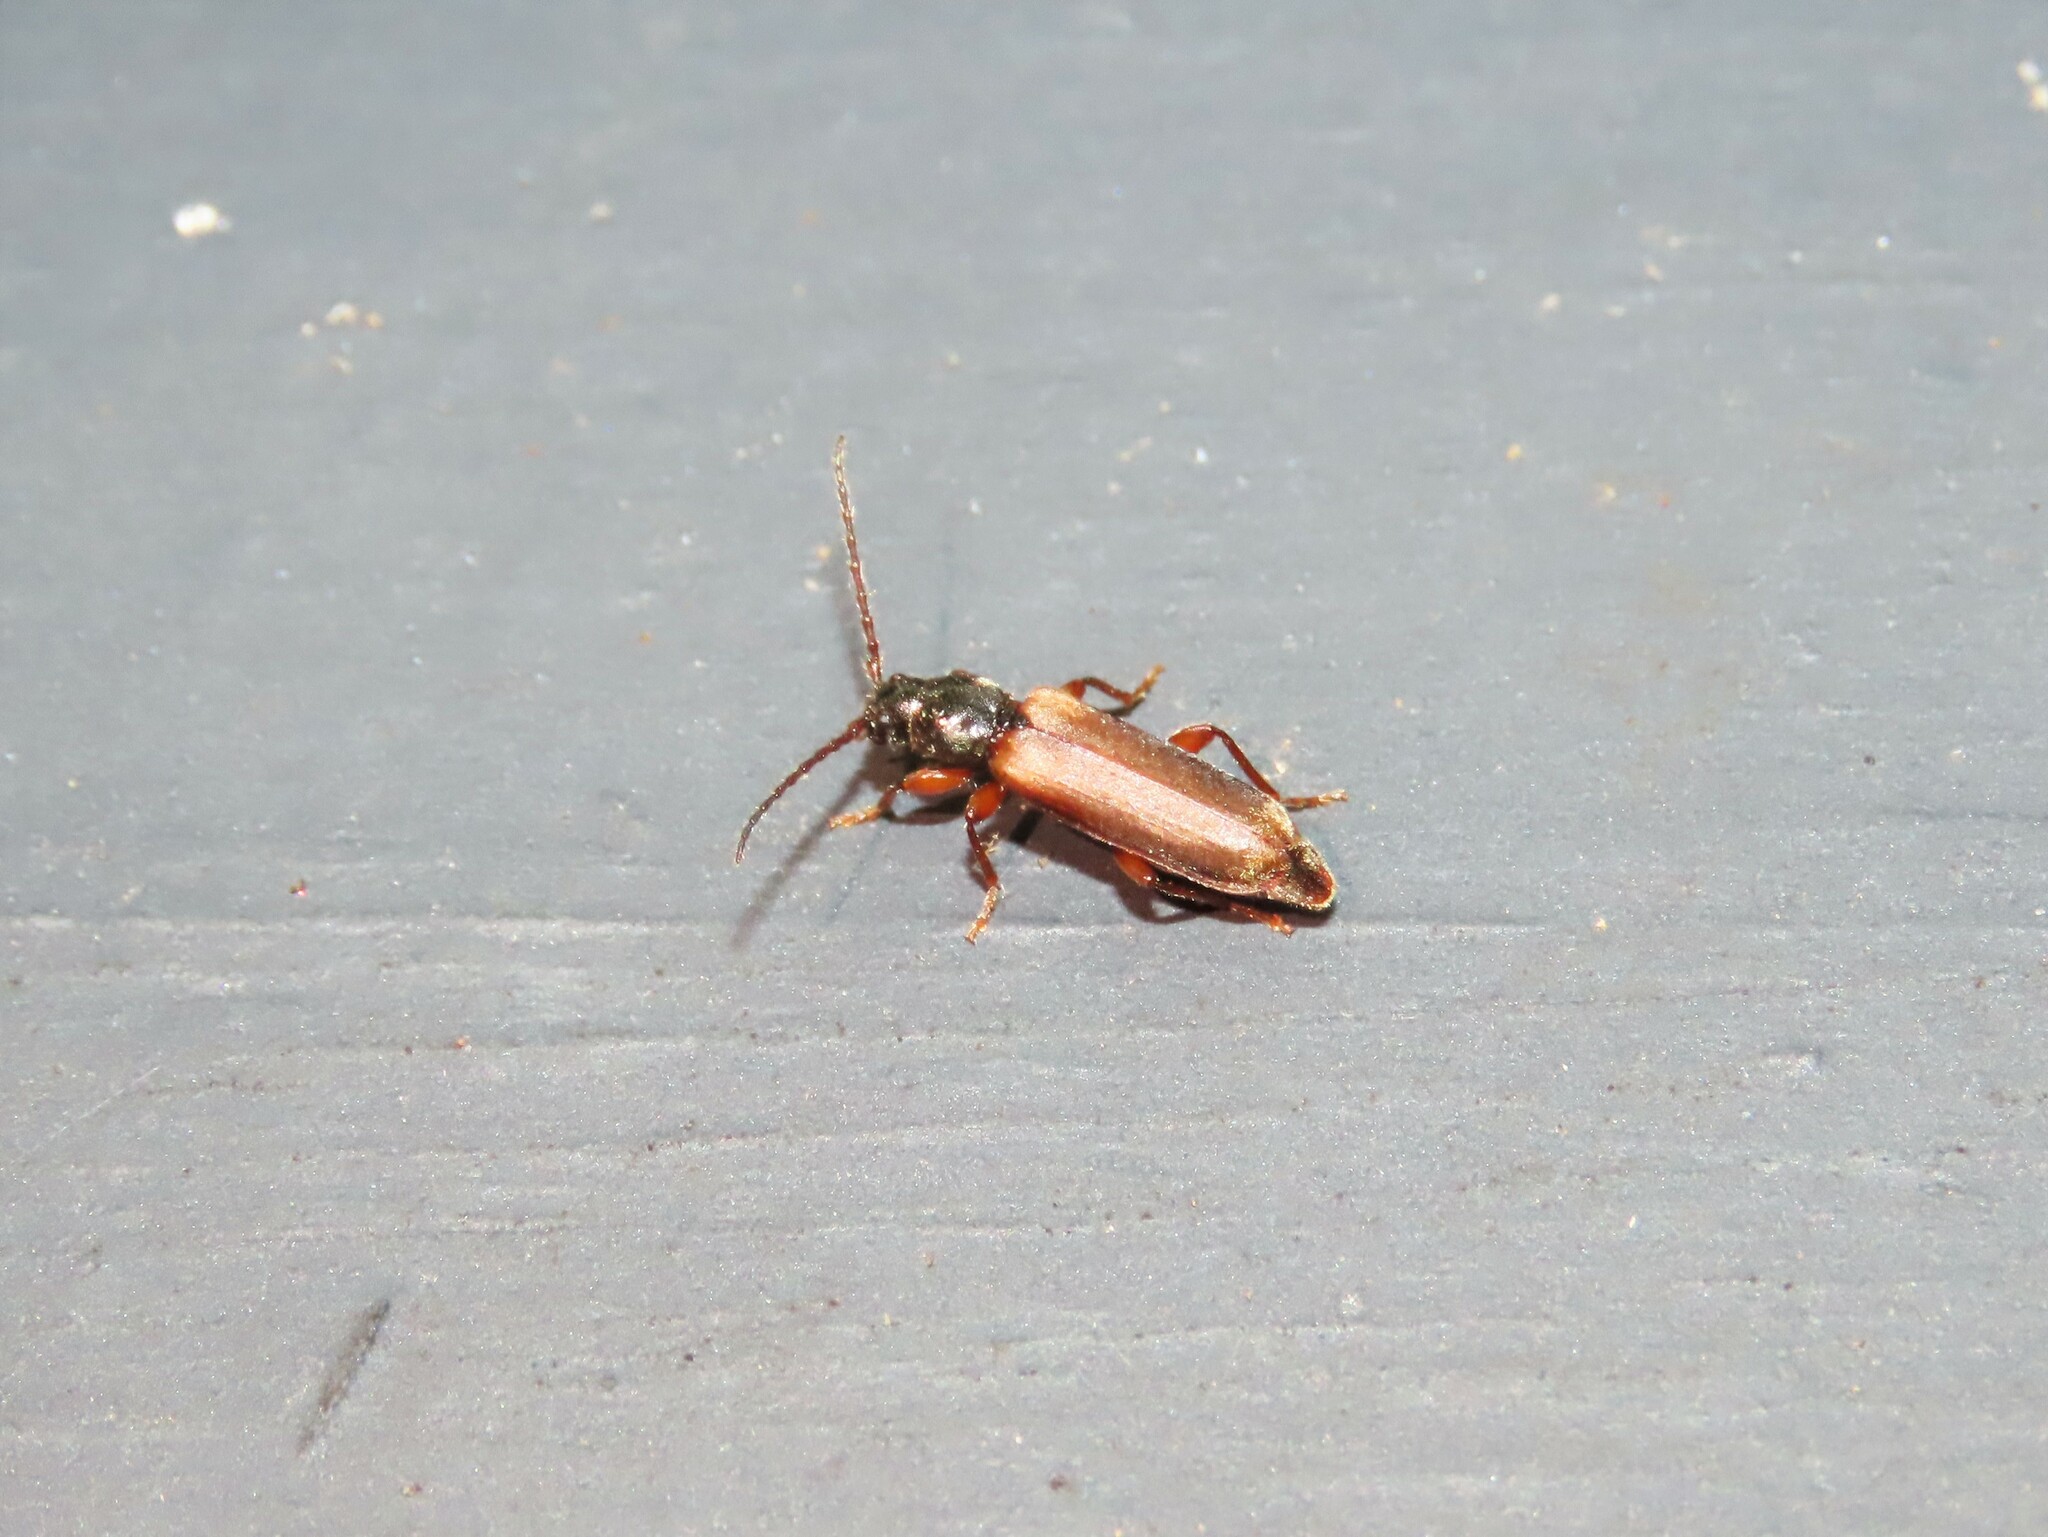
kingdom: Animalia
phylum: Arthropoda
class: Insecta
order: Coleoptera
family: Cerambycidae
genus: Tetropium
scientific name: Tetropium cinnamopterum
